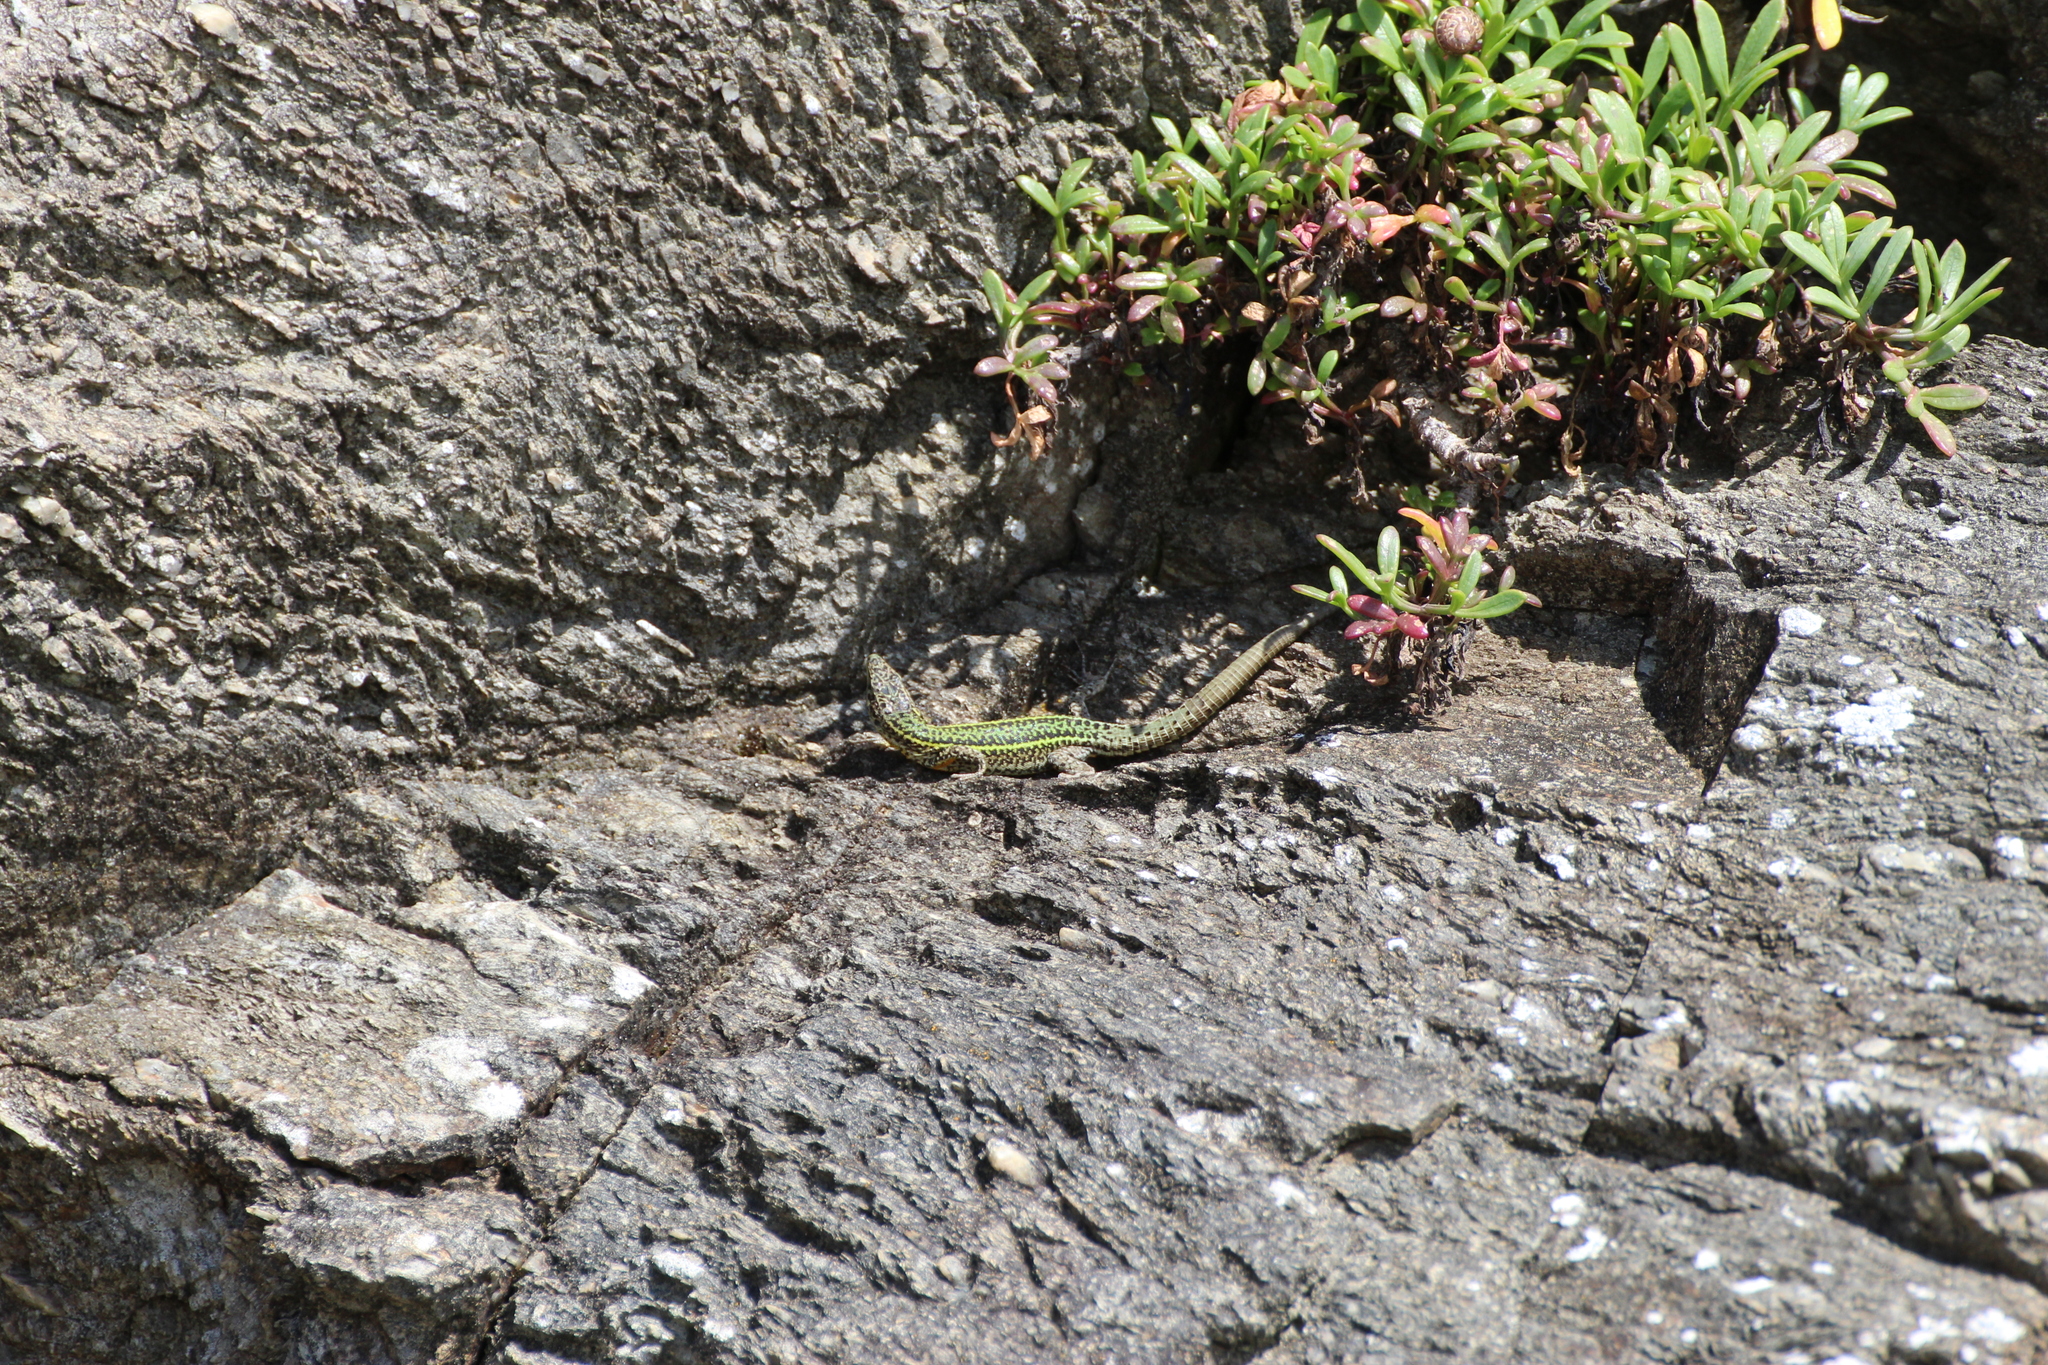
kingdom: Animalia
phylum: Chordata
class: Squamata
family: Lacertidae
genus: Podarcis
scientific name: Podarcis bocagei
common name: Bocage's wall lizard
